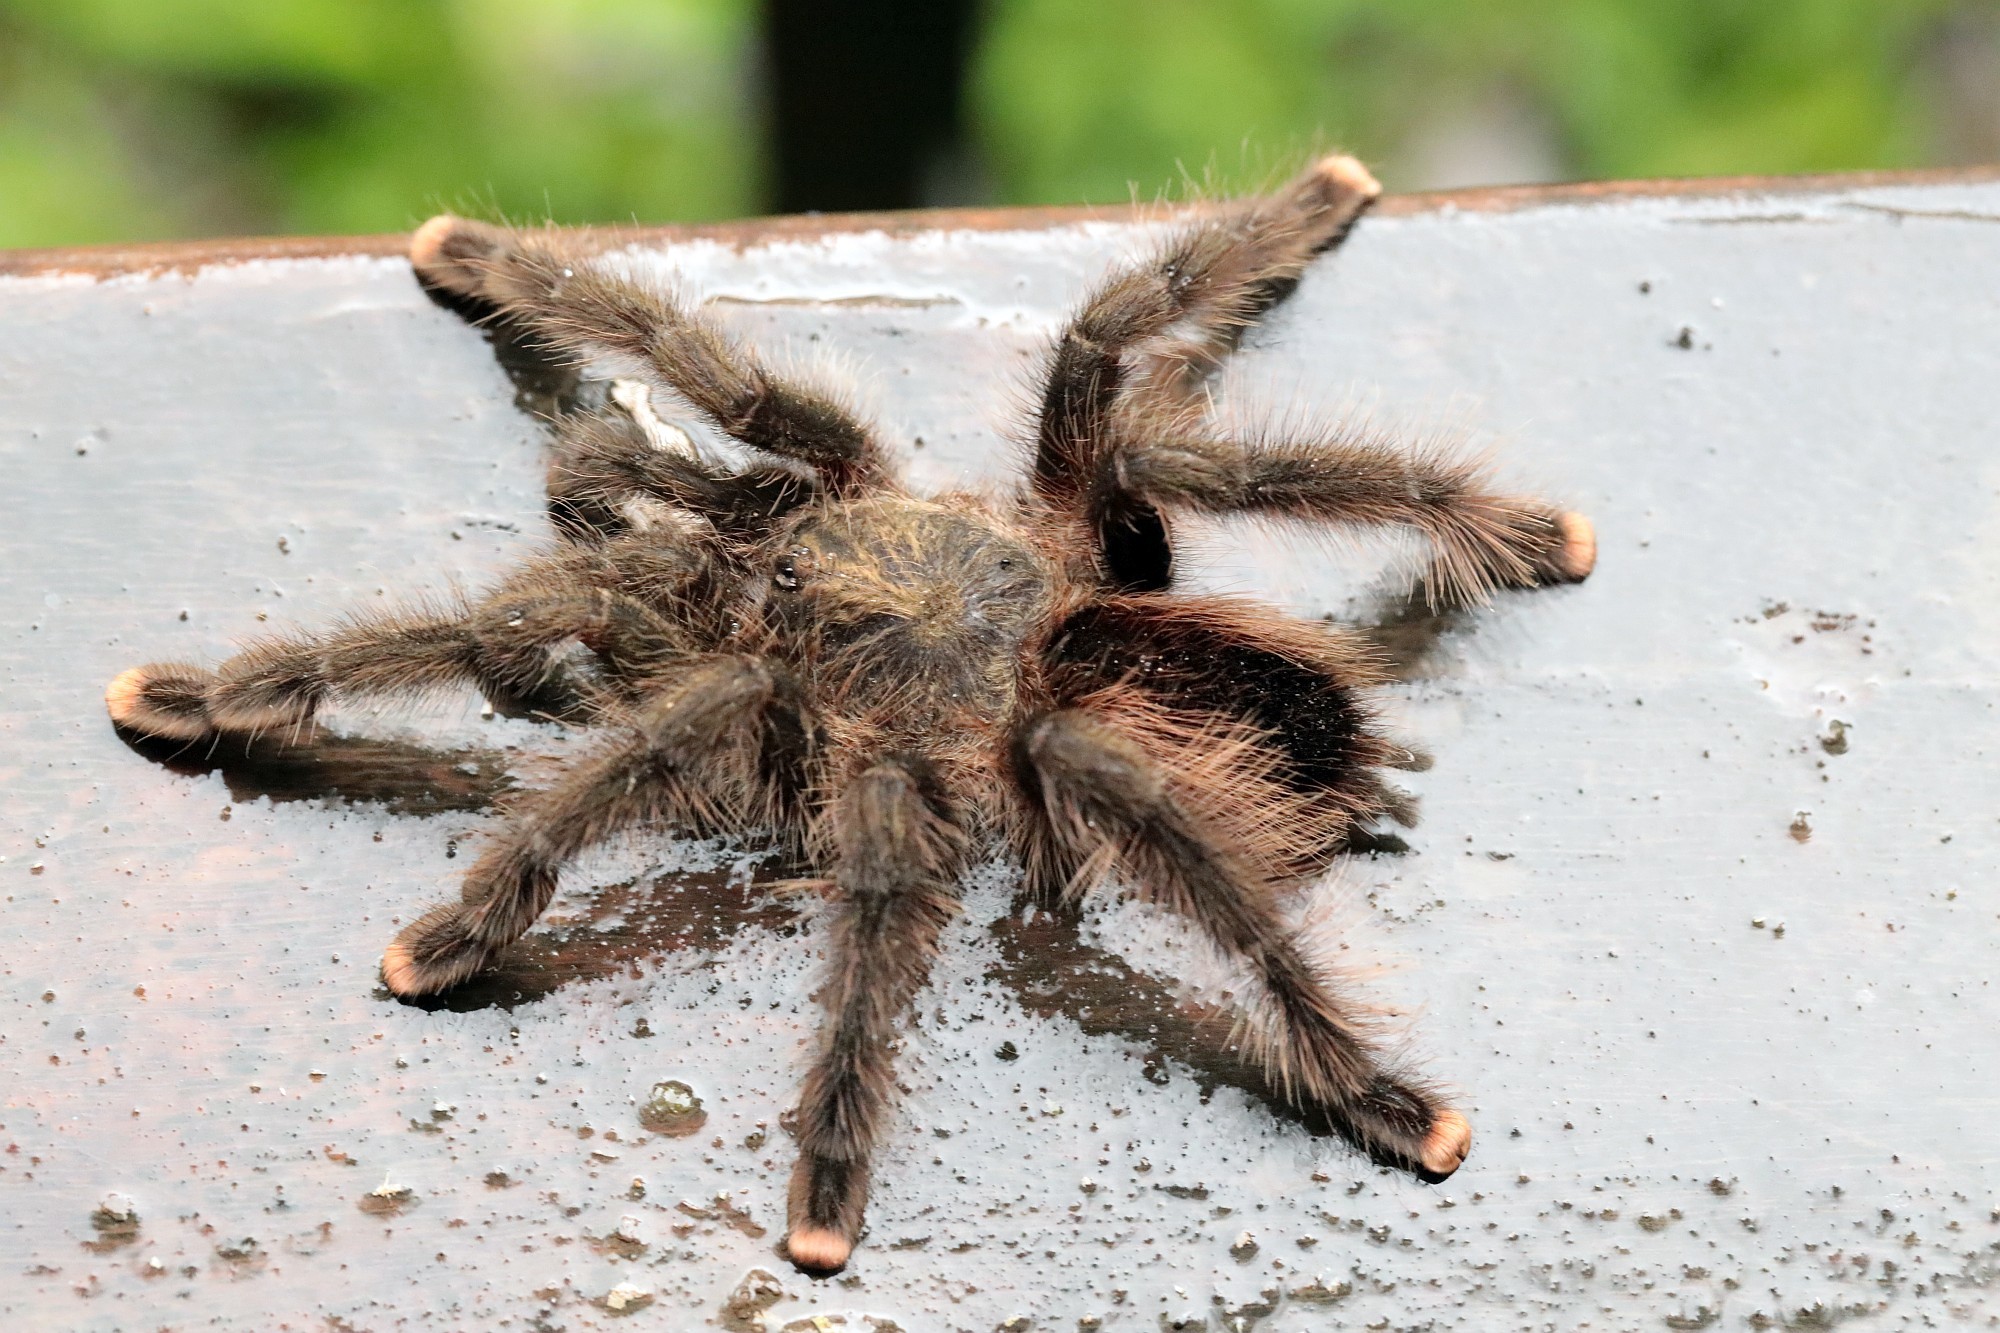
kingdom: Animalia
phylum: Arthropoda
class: Arachnida
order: Araneae
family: Theraphosidae
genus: Avicularia
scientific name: Avicularia juruensis
